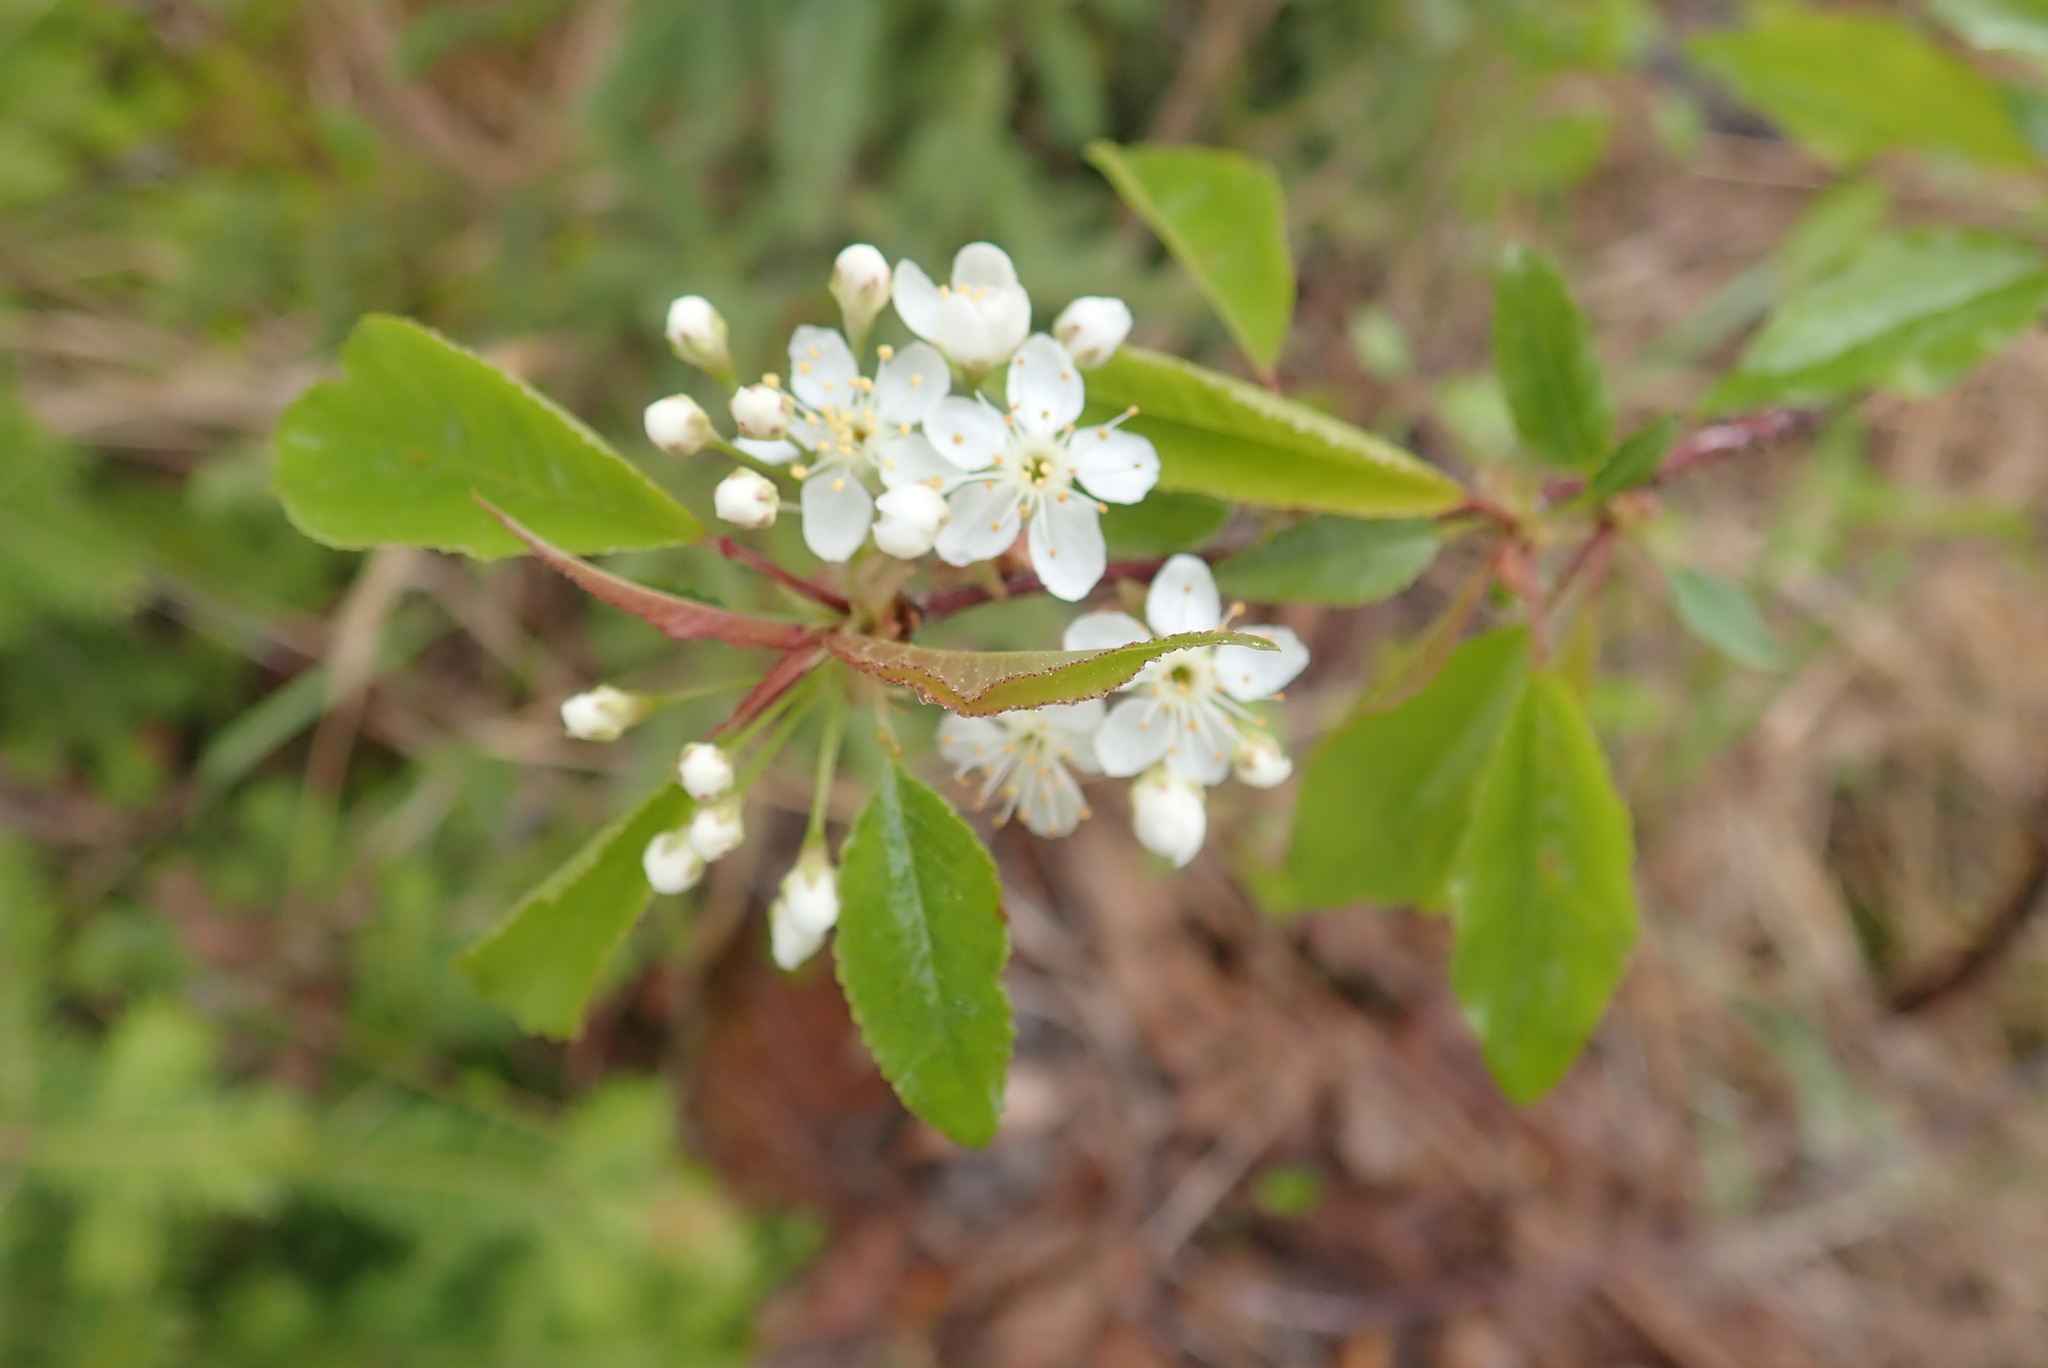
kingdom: Plantae
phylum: Tracheophyta
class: Magnoliopsida
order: Rosales
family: Rosaceae
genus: Prunus
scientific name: Prunus pensylvanica
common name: Pin cherry
